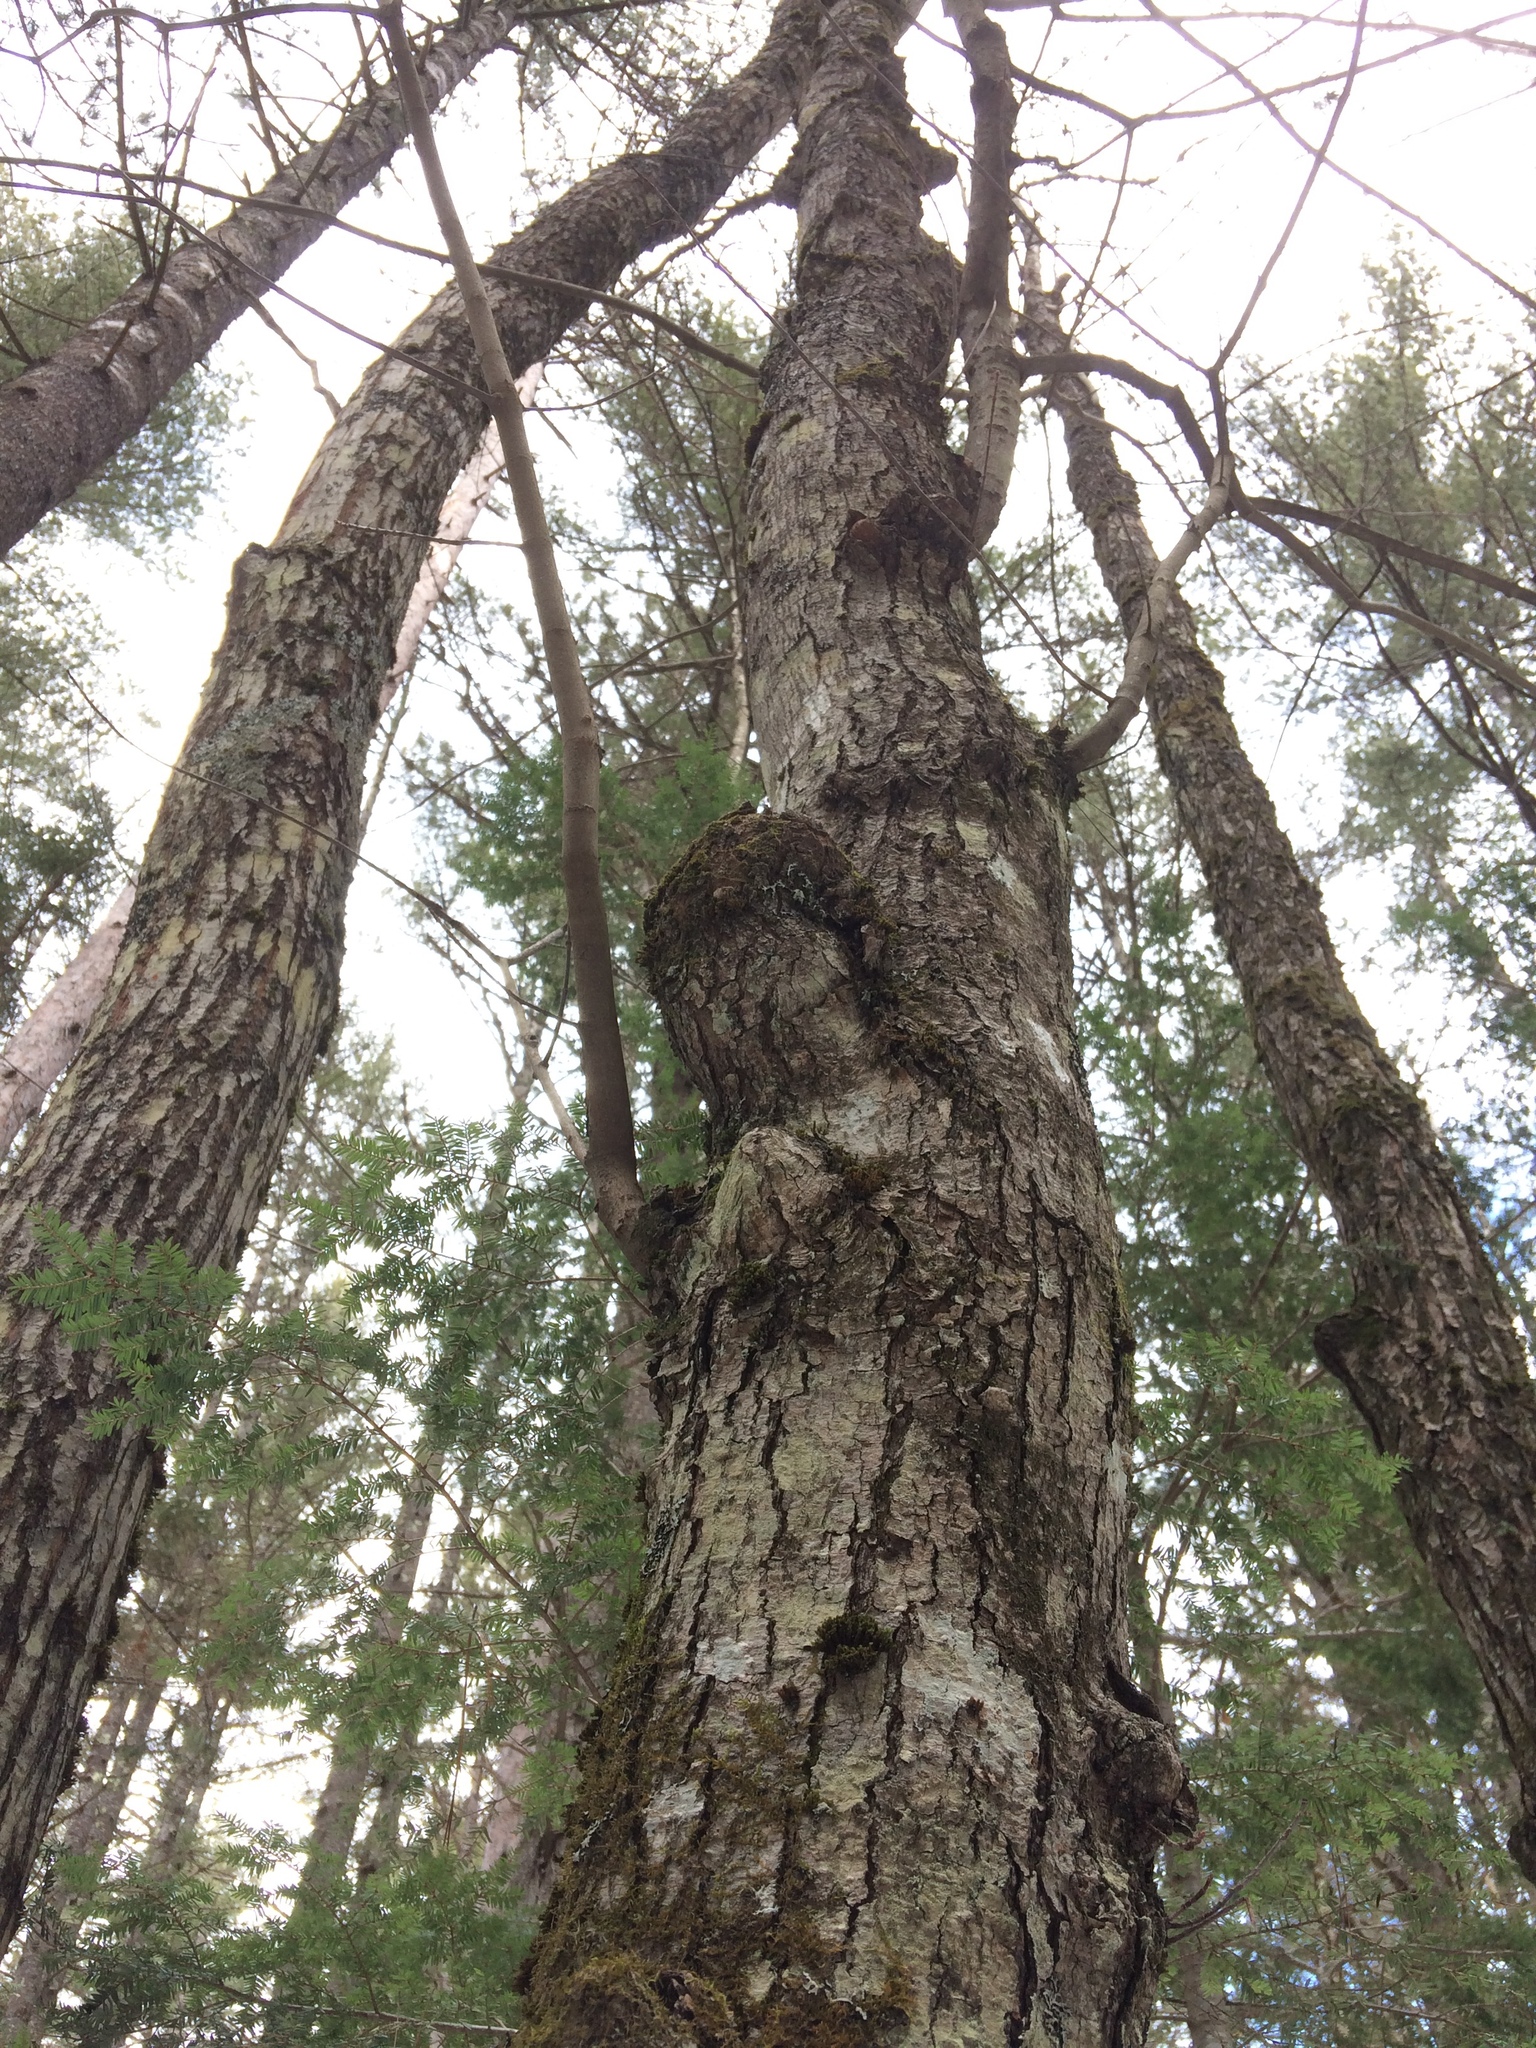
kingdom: Plantae
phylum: Tracheophyta
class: Magnoliopsida
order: Sapindales
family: Sapindaceae
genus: Acer
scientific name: Acer rubrum
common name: Red maple
